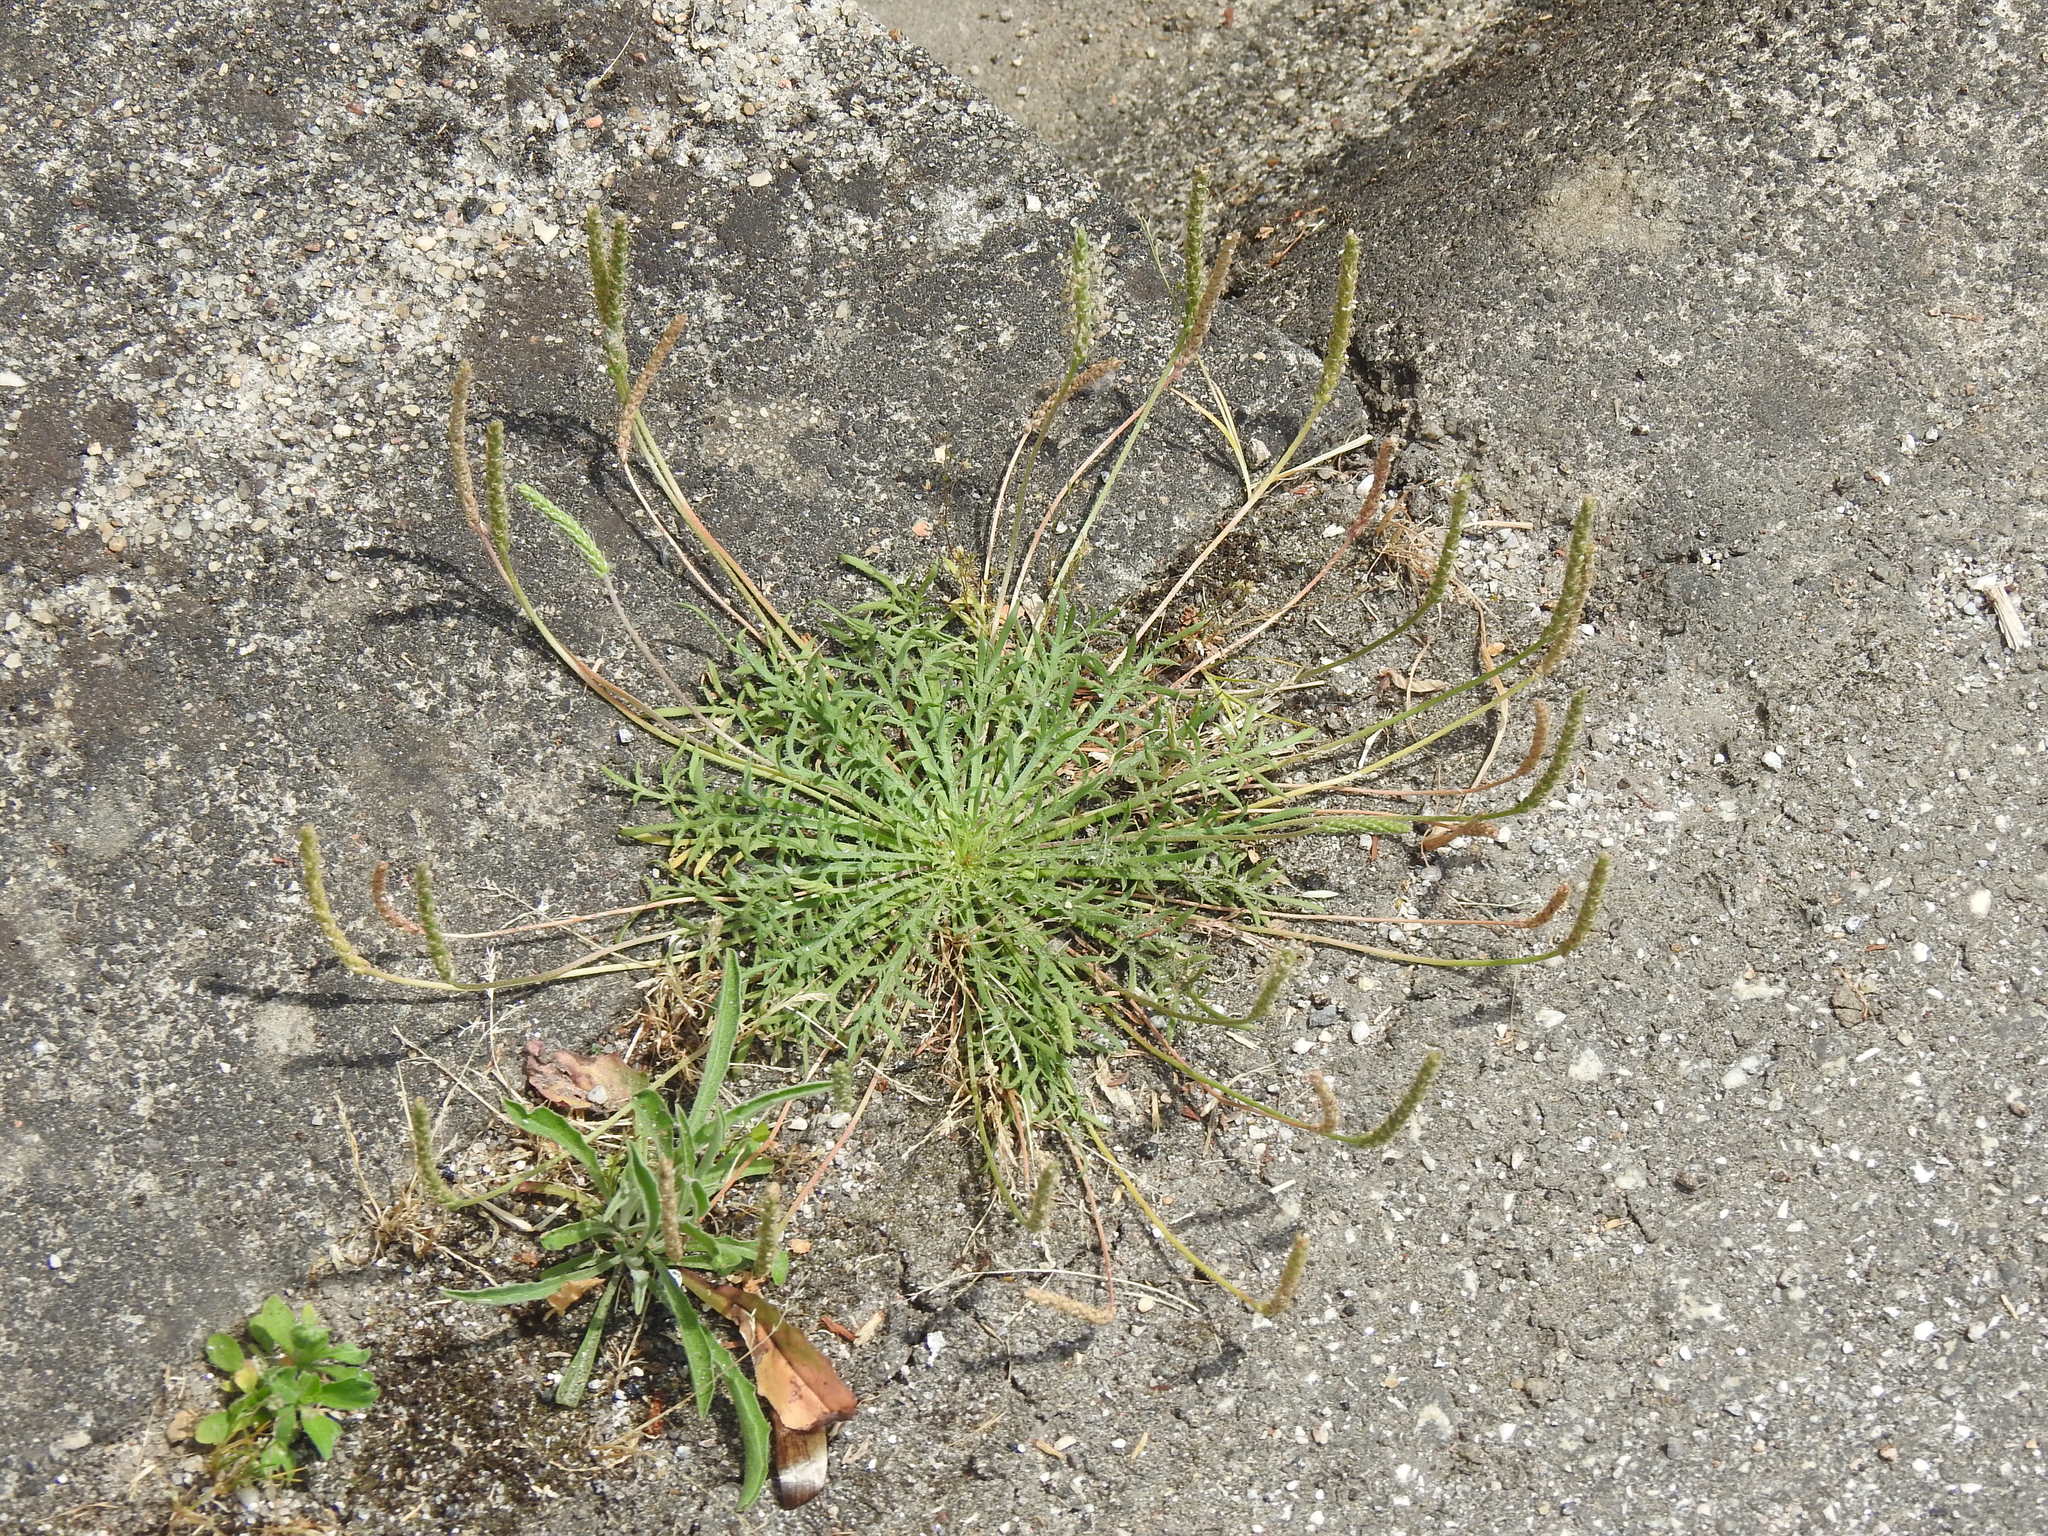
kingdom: Plantae
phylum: Tracheophyta
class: Magnoliopsida
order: Lamiales
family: Plantaginaceae
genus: Plantago
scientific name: Plantago coronopus
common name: Buck's-horn plantain
